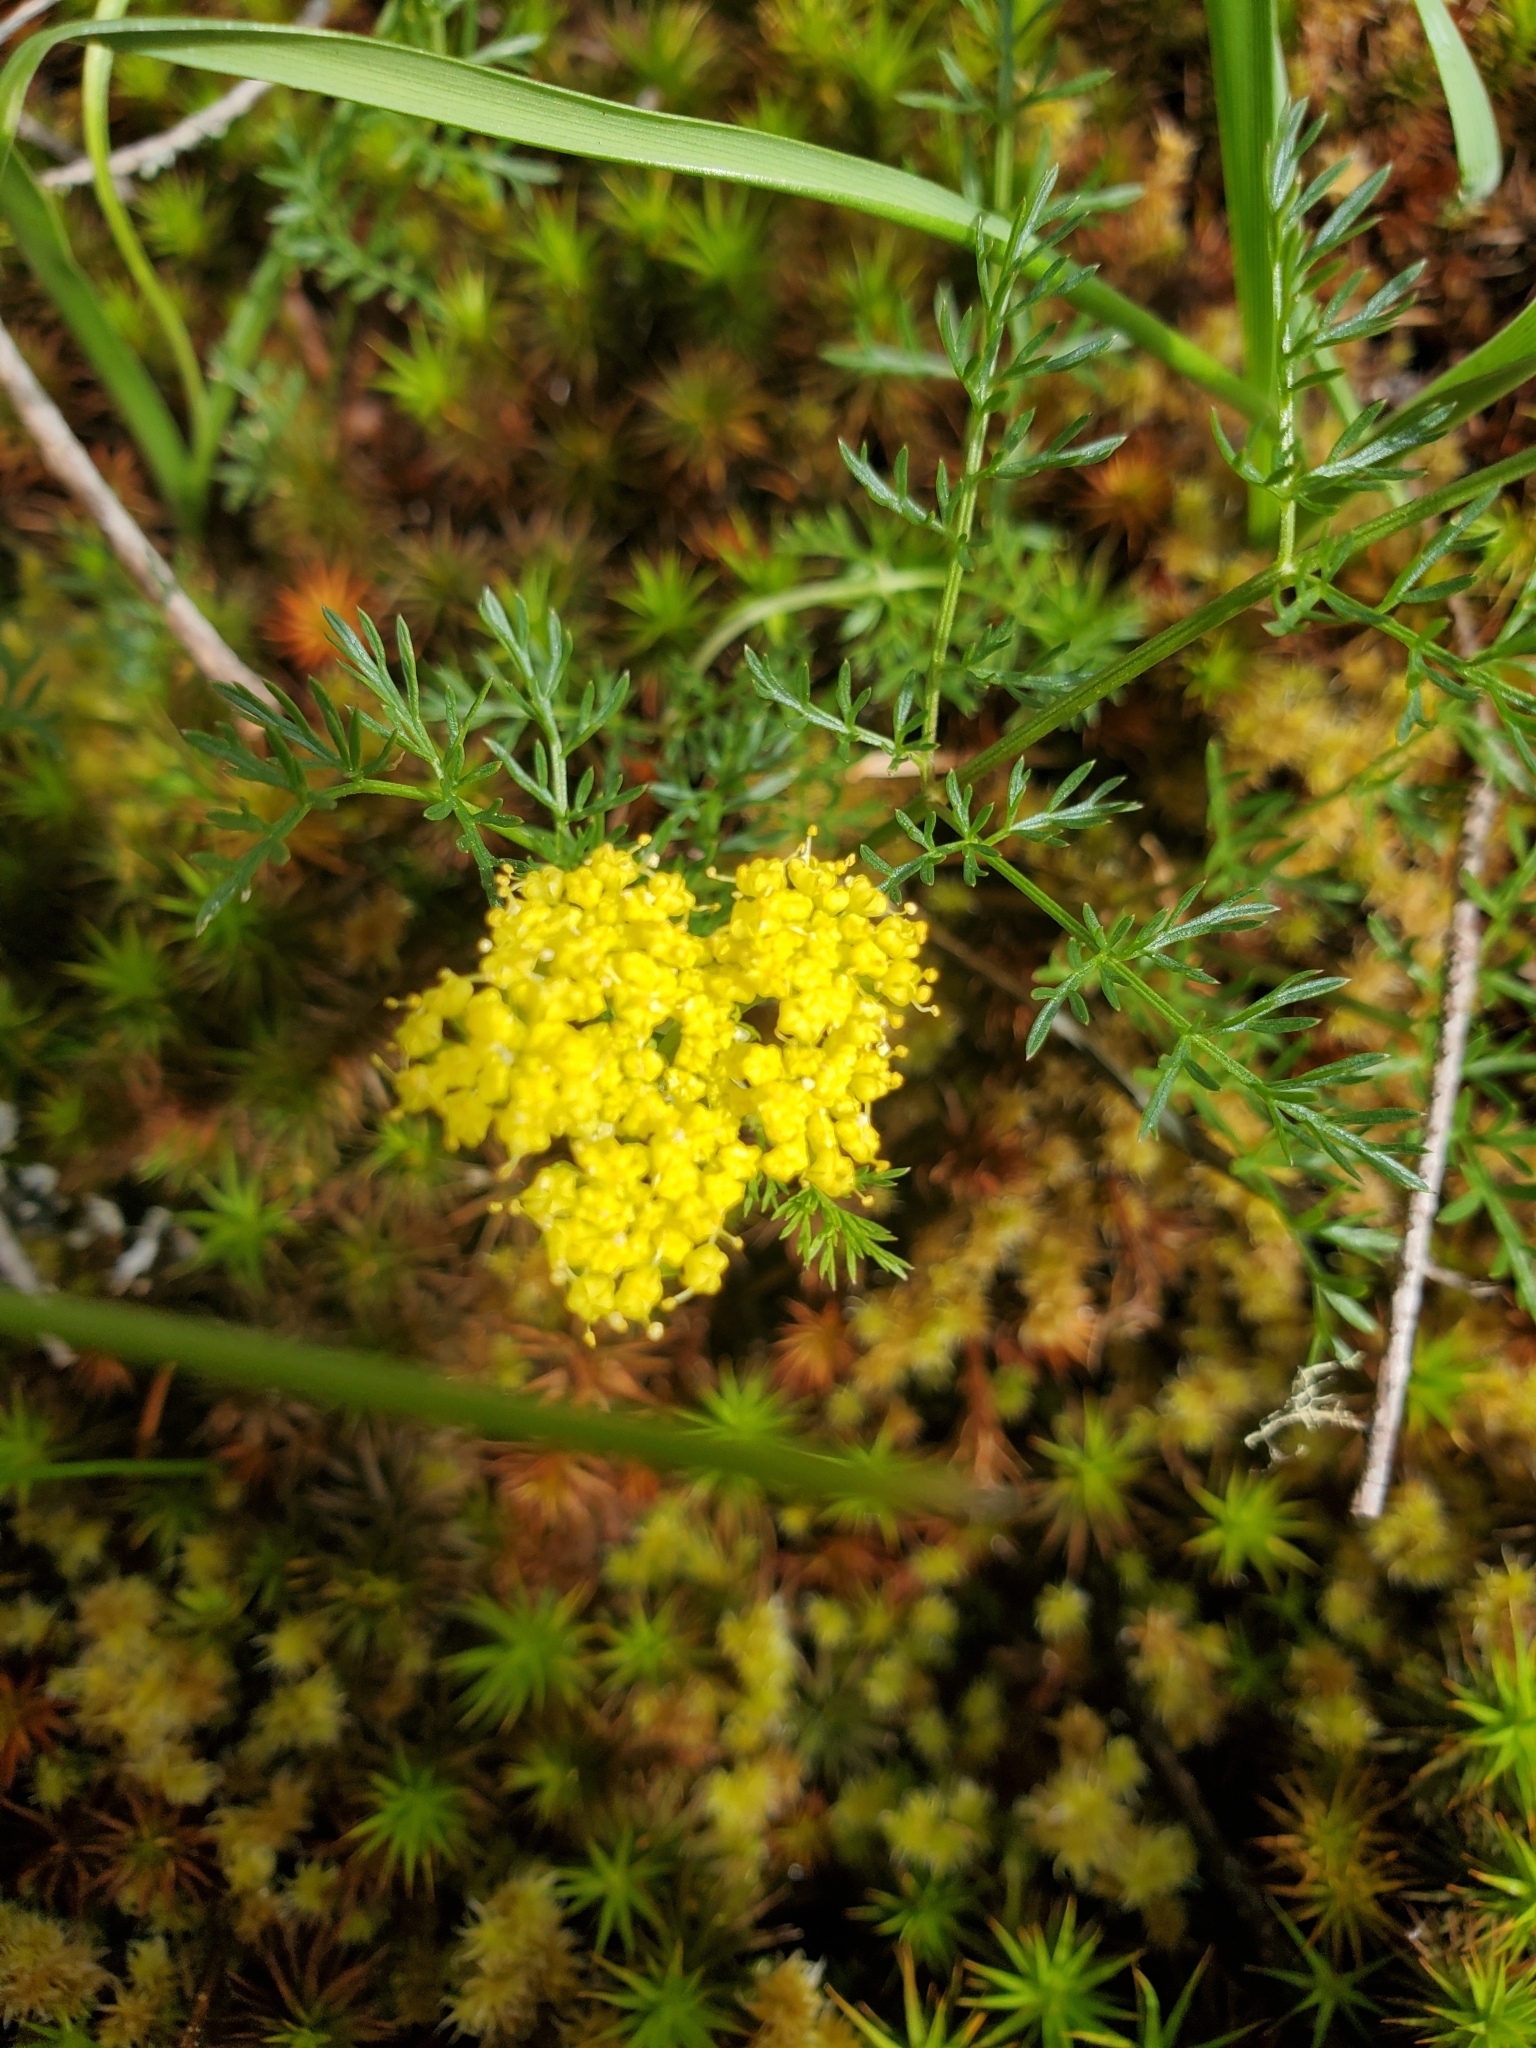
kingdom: Plantae
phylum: Tracheophyta
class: Magnoliopsida
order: Apiales
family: Apiaceae
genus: Lomatium
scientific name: Lomatium utriculatum
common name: Fine-leaf desert-parsley
